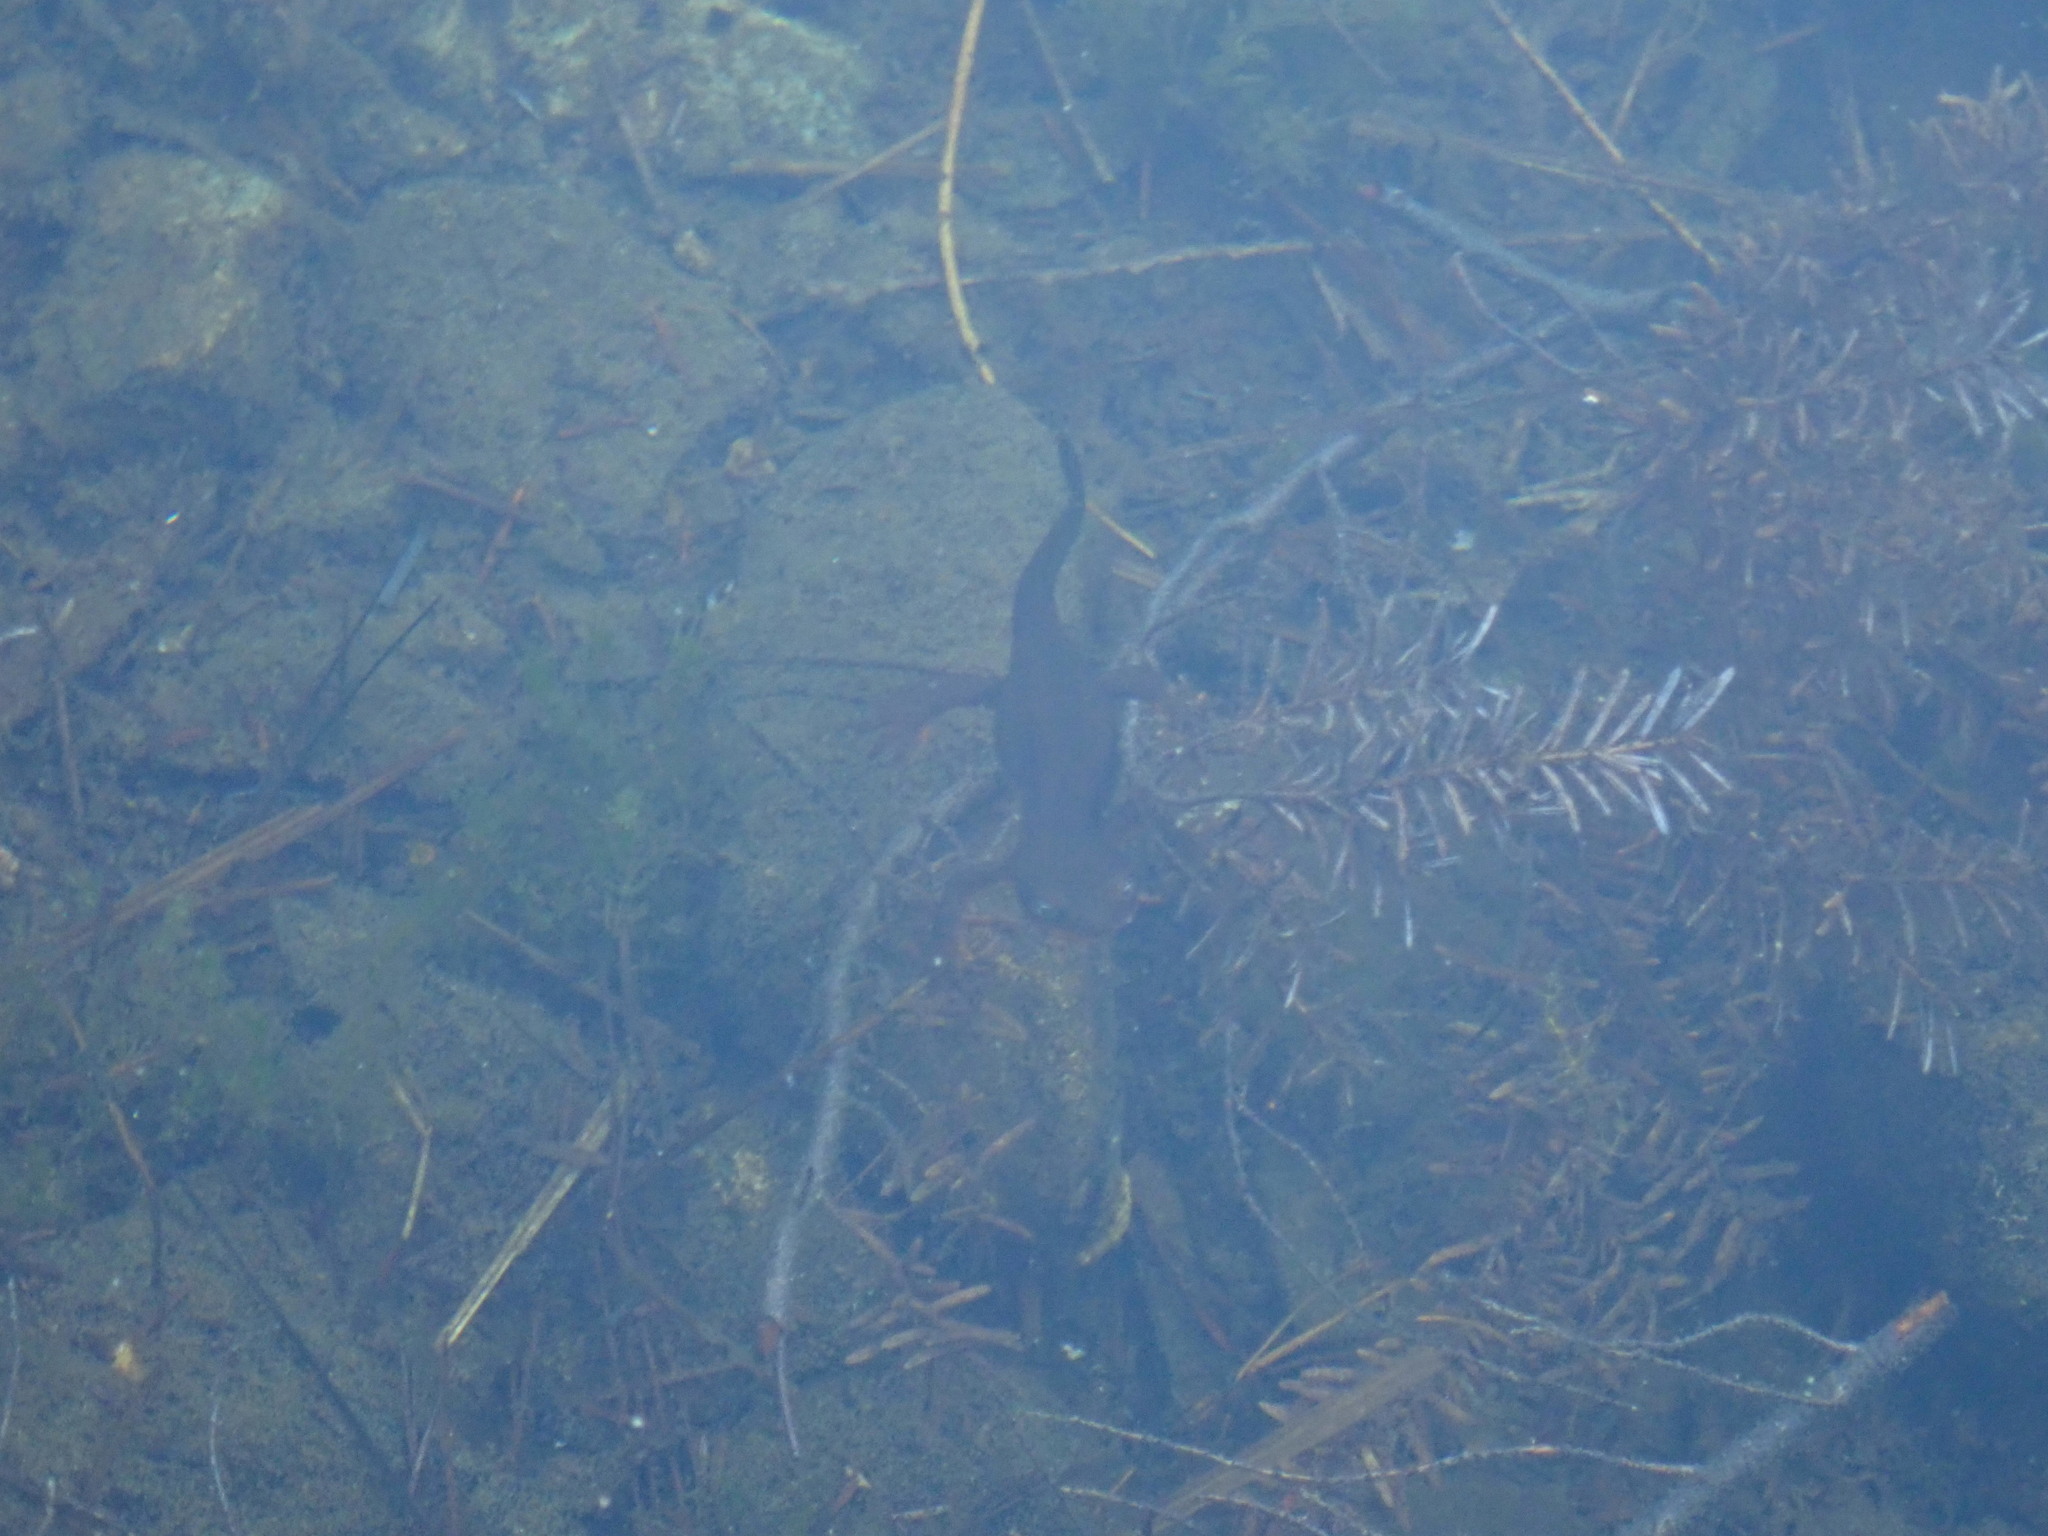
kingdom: Animalia
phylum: Chordata
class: Amphibia
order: Caudata
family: Salamandridae
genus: Taricha
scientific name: Taricha granulosa
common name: Roughskin newt
